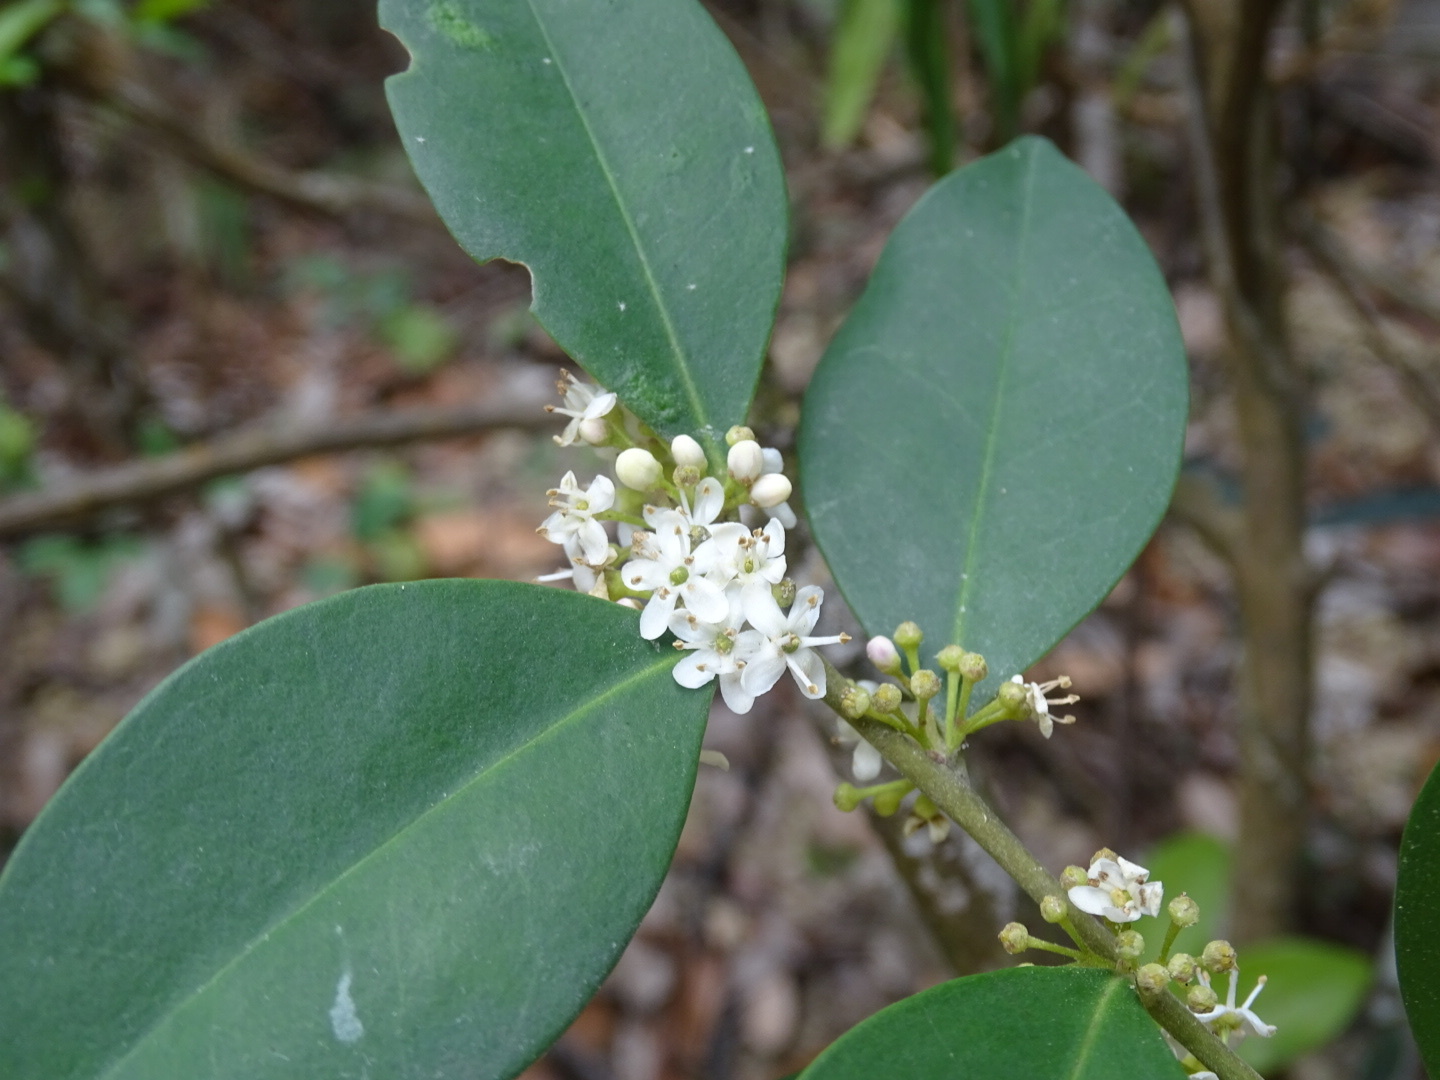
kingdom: Plantae
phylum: Tracheophyta
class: Magnoliopsida
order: Aquifoliales
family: Aquifoliaceae
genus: Ilex
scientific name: Ilex memecylifolia
